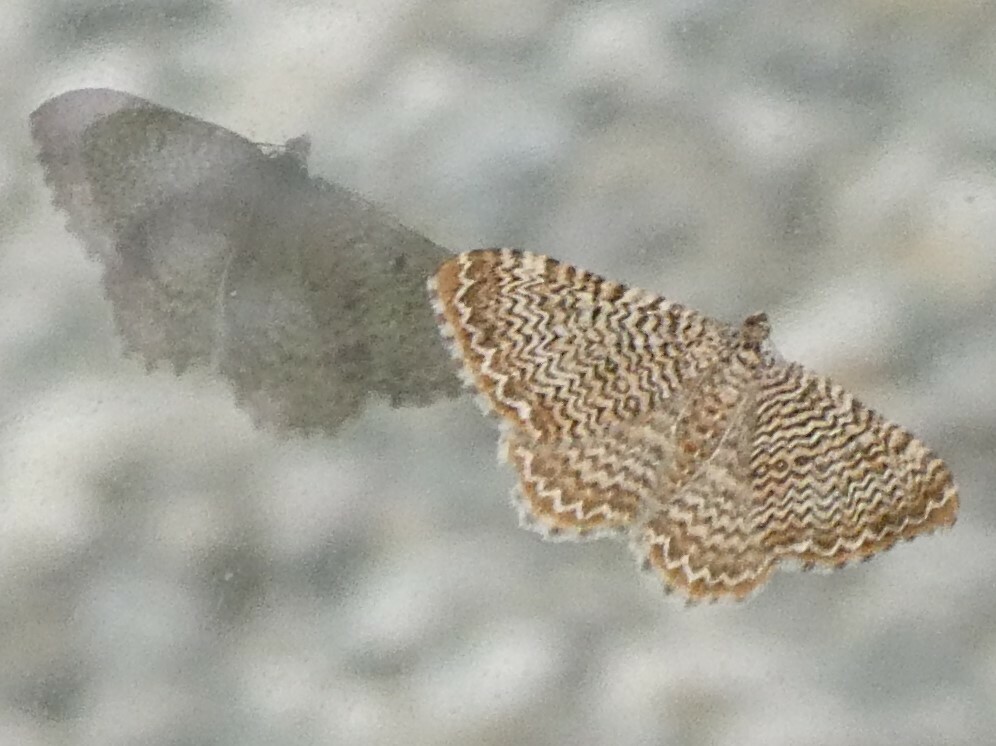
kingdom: Animalia
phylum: Arthropoda
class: Insecta
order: Lepidoptera
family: Geometridae
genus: Rheumaptera
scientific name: Rheumaptera
